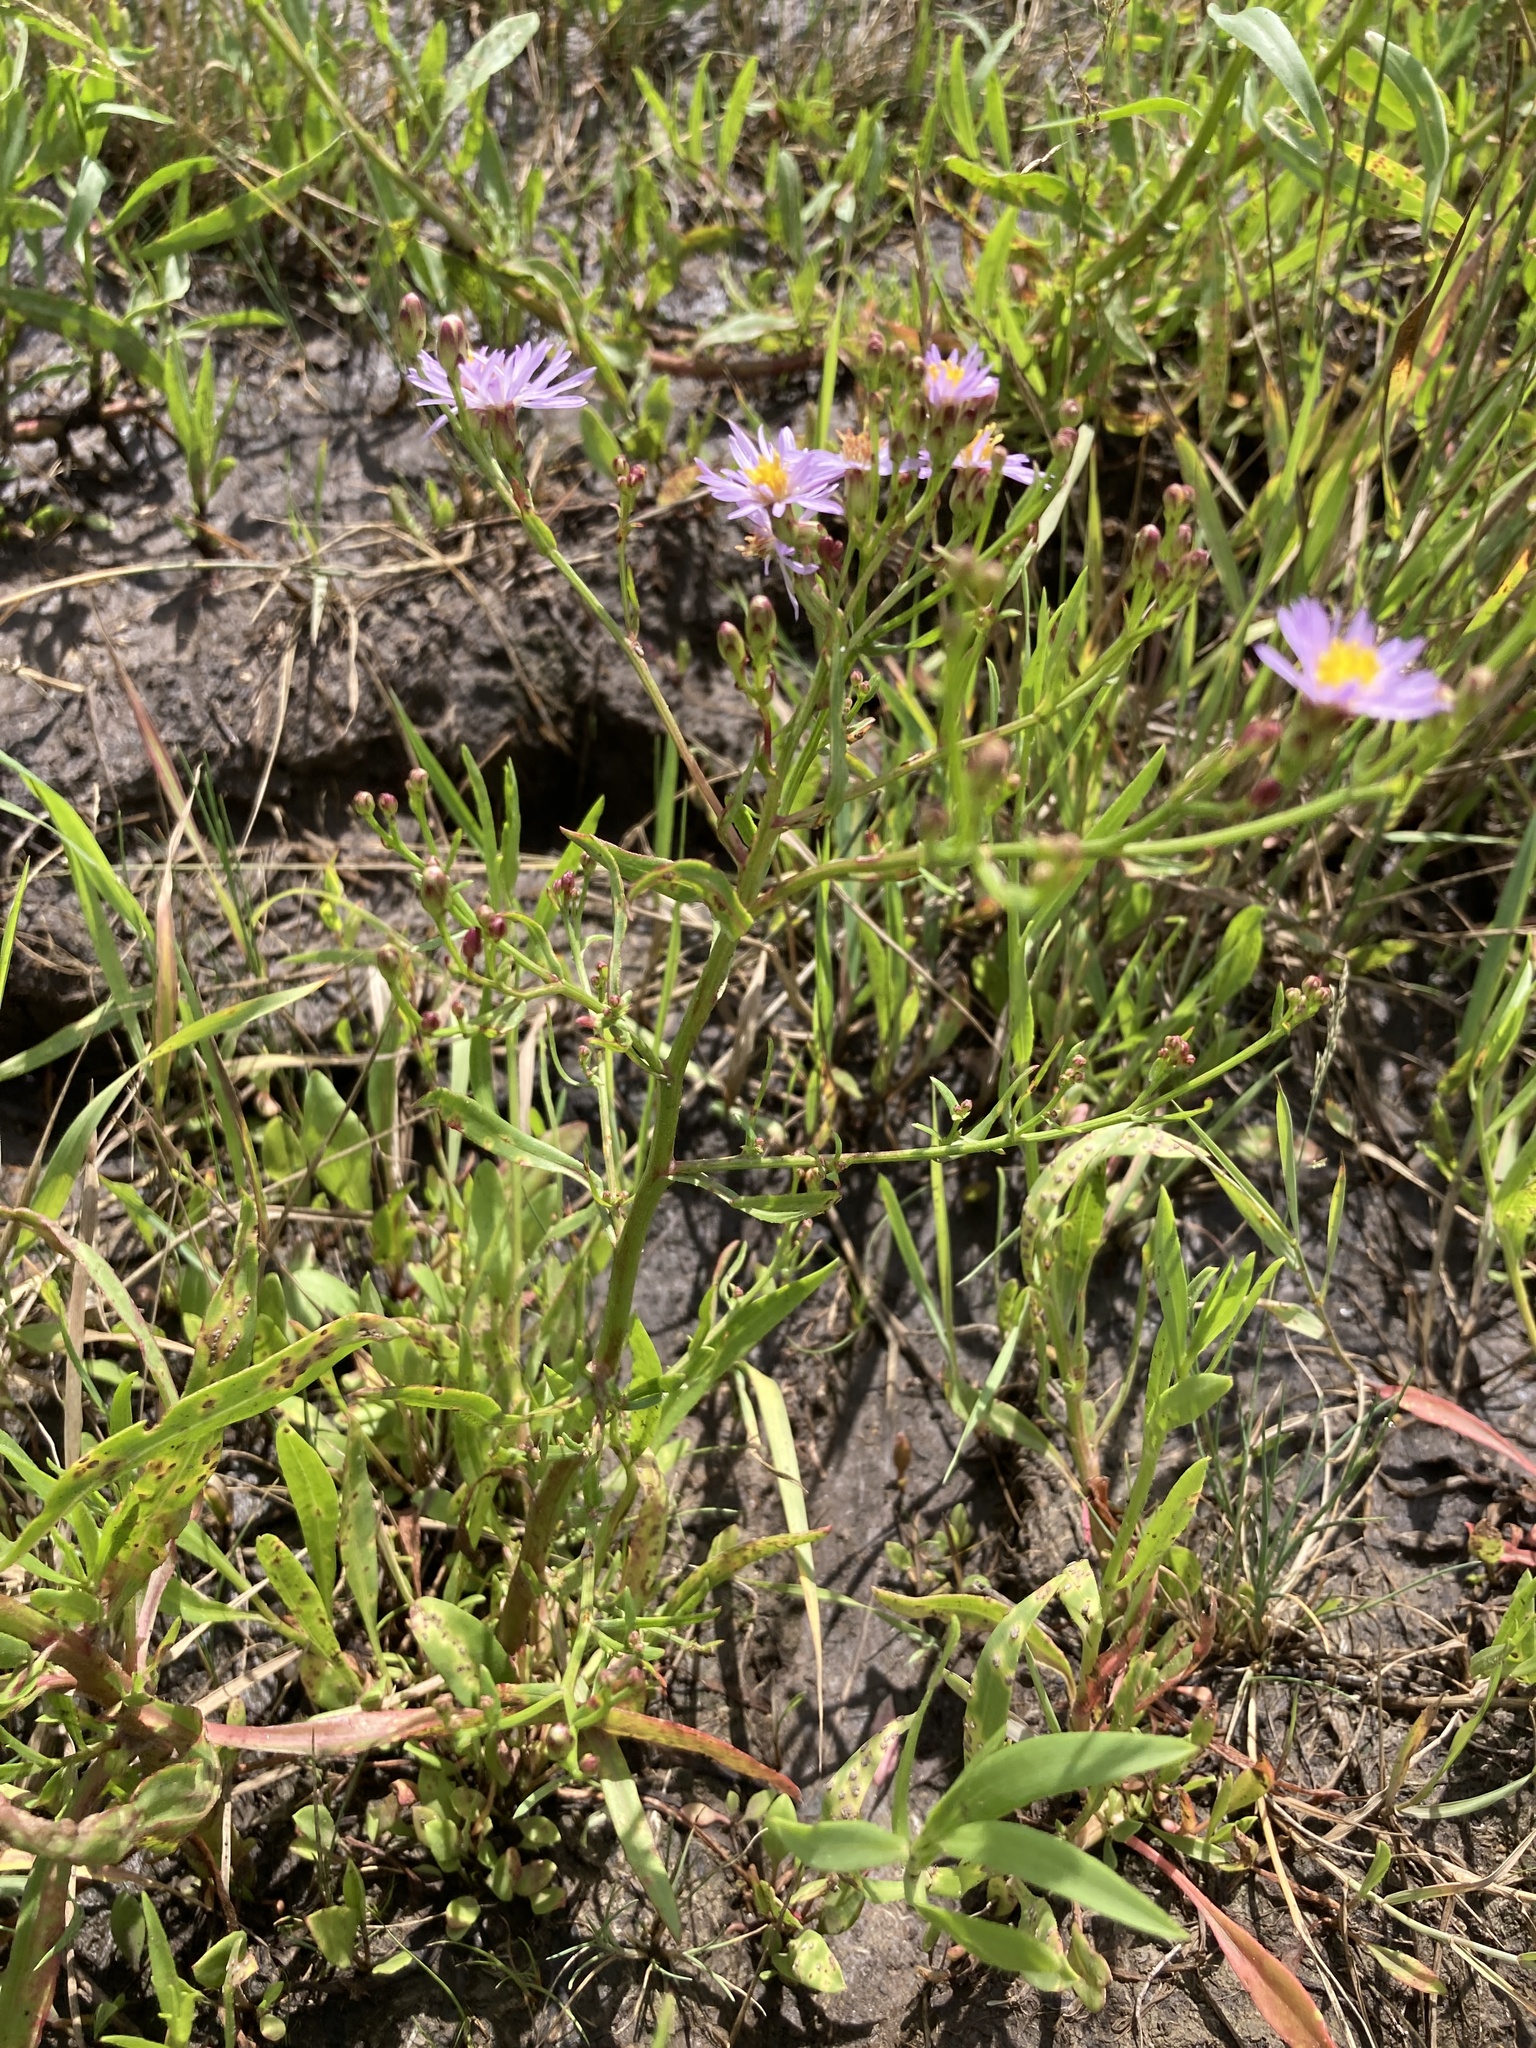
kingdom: Plantae
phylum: Tracheophyta
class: Magnoliopsida
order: Asterales
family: Asteraceae
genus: Tripolium
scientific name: Tripolium pannonicum
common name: Sea aster
